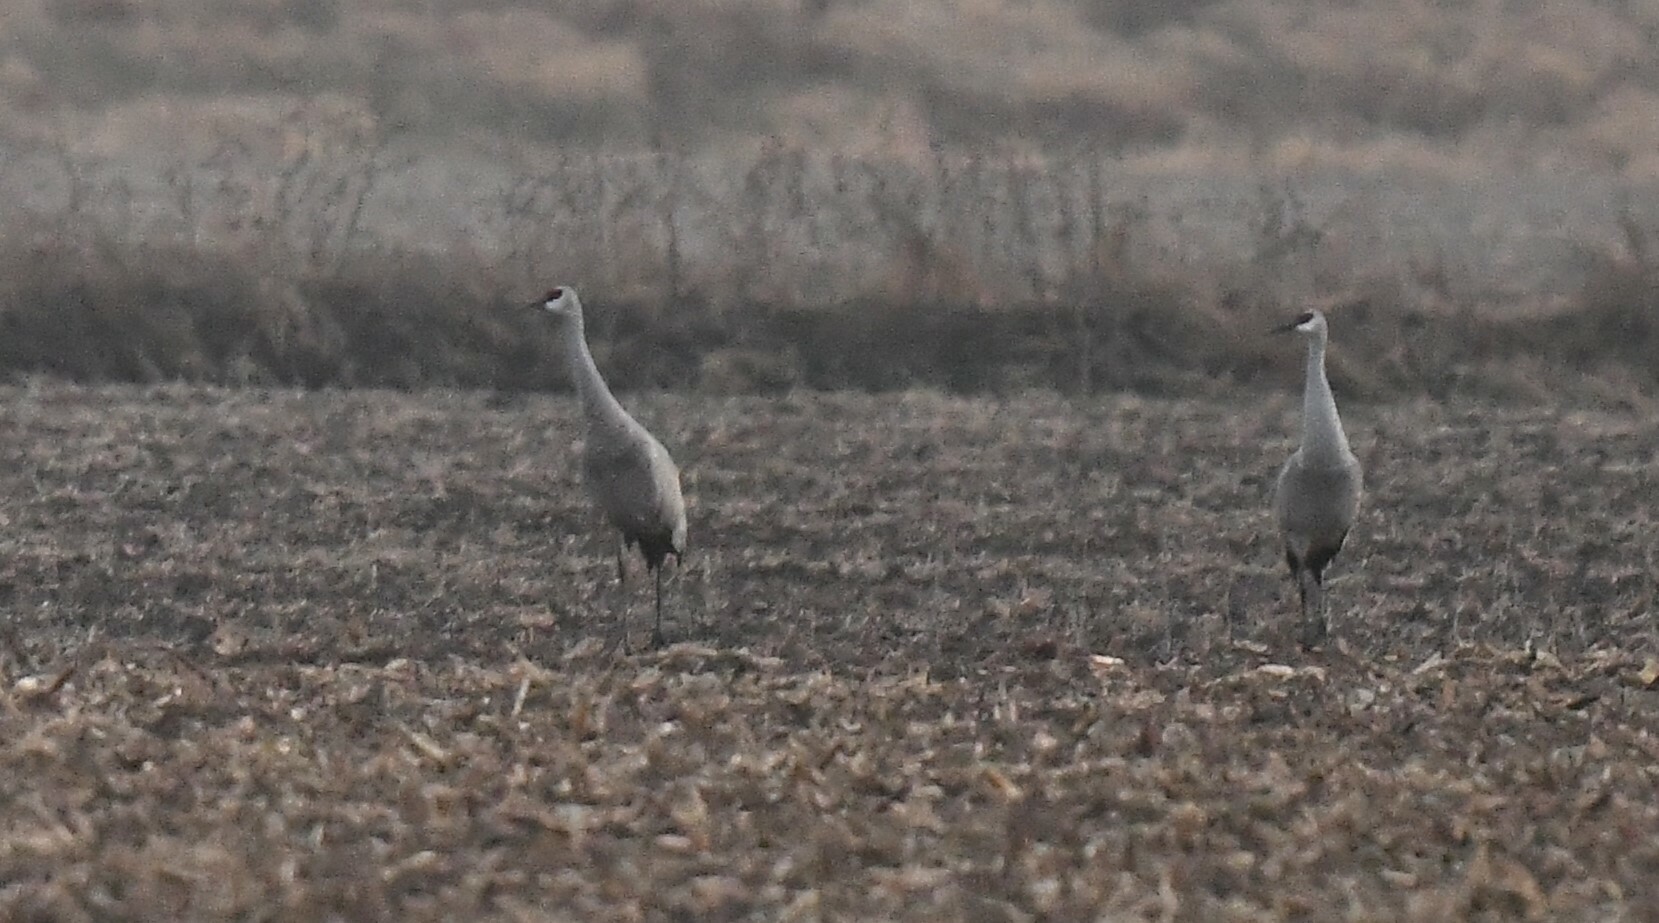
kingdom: Animalia
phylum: Chordata
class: Aves
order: Gruiformes
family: Gruidae
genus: Grus
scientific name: Grus canadensis
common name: Sandhill crane
